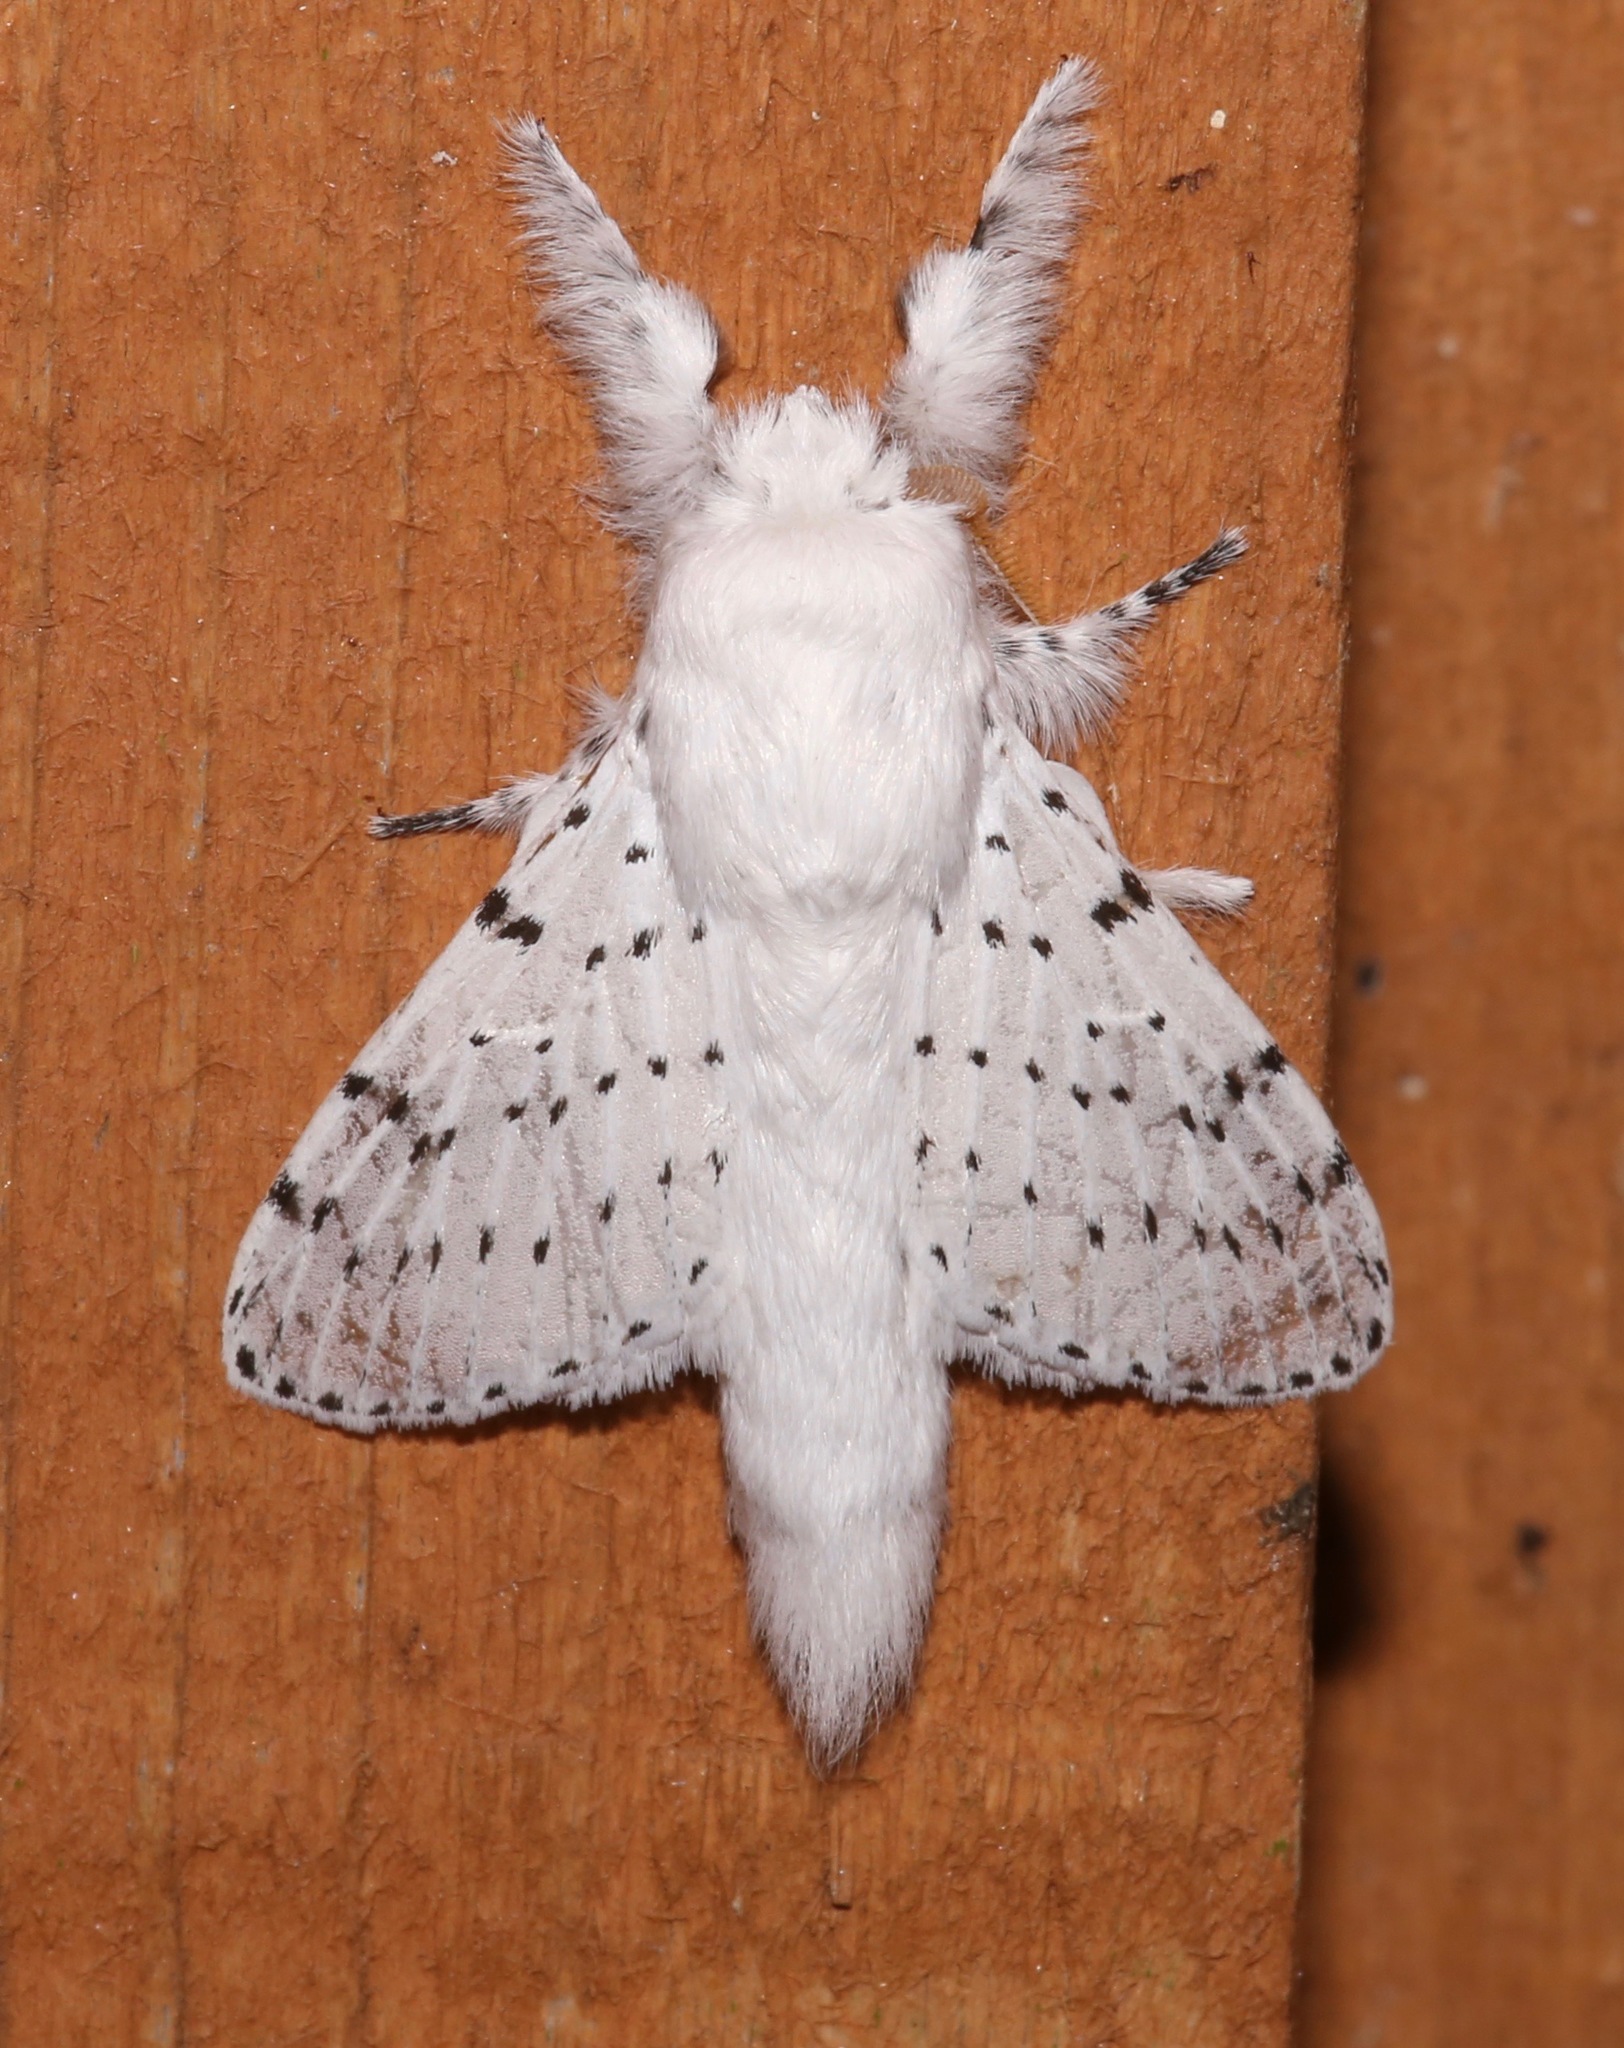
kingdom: Animalia
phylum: Arthropoda
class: Insecta
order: Lepidoptera
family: Lasiocampidae
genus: Artace
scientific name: Artace cribrarius
